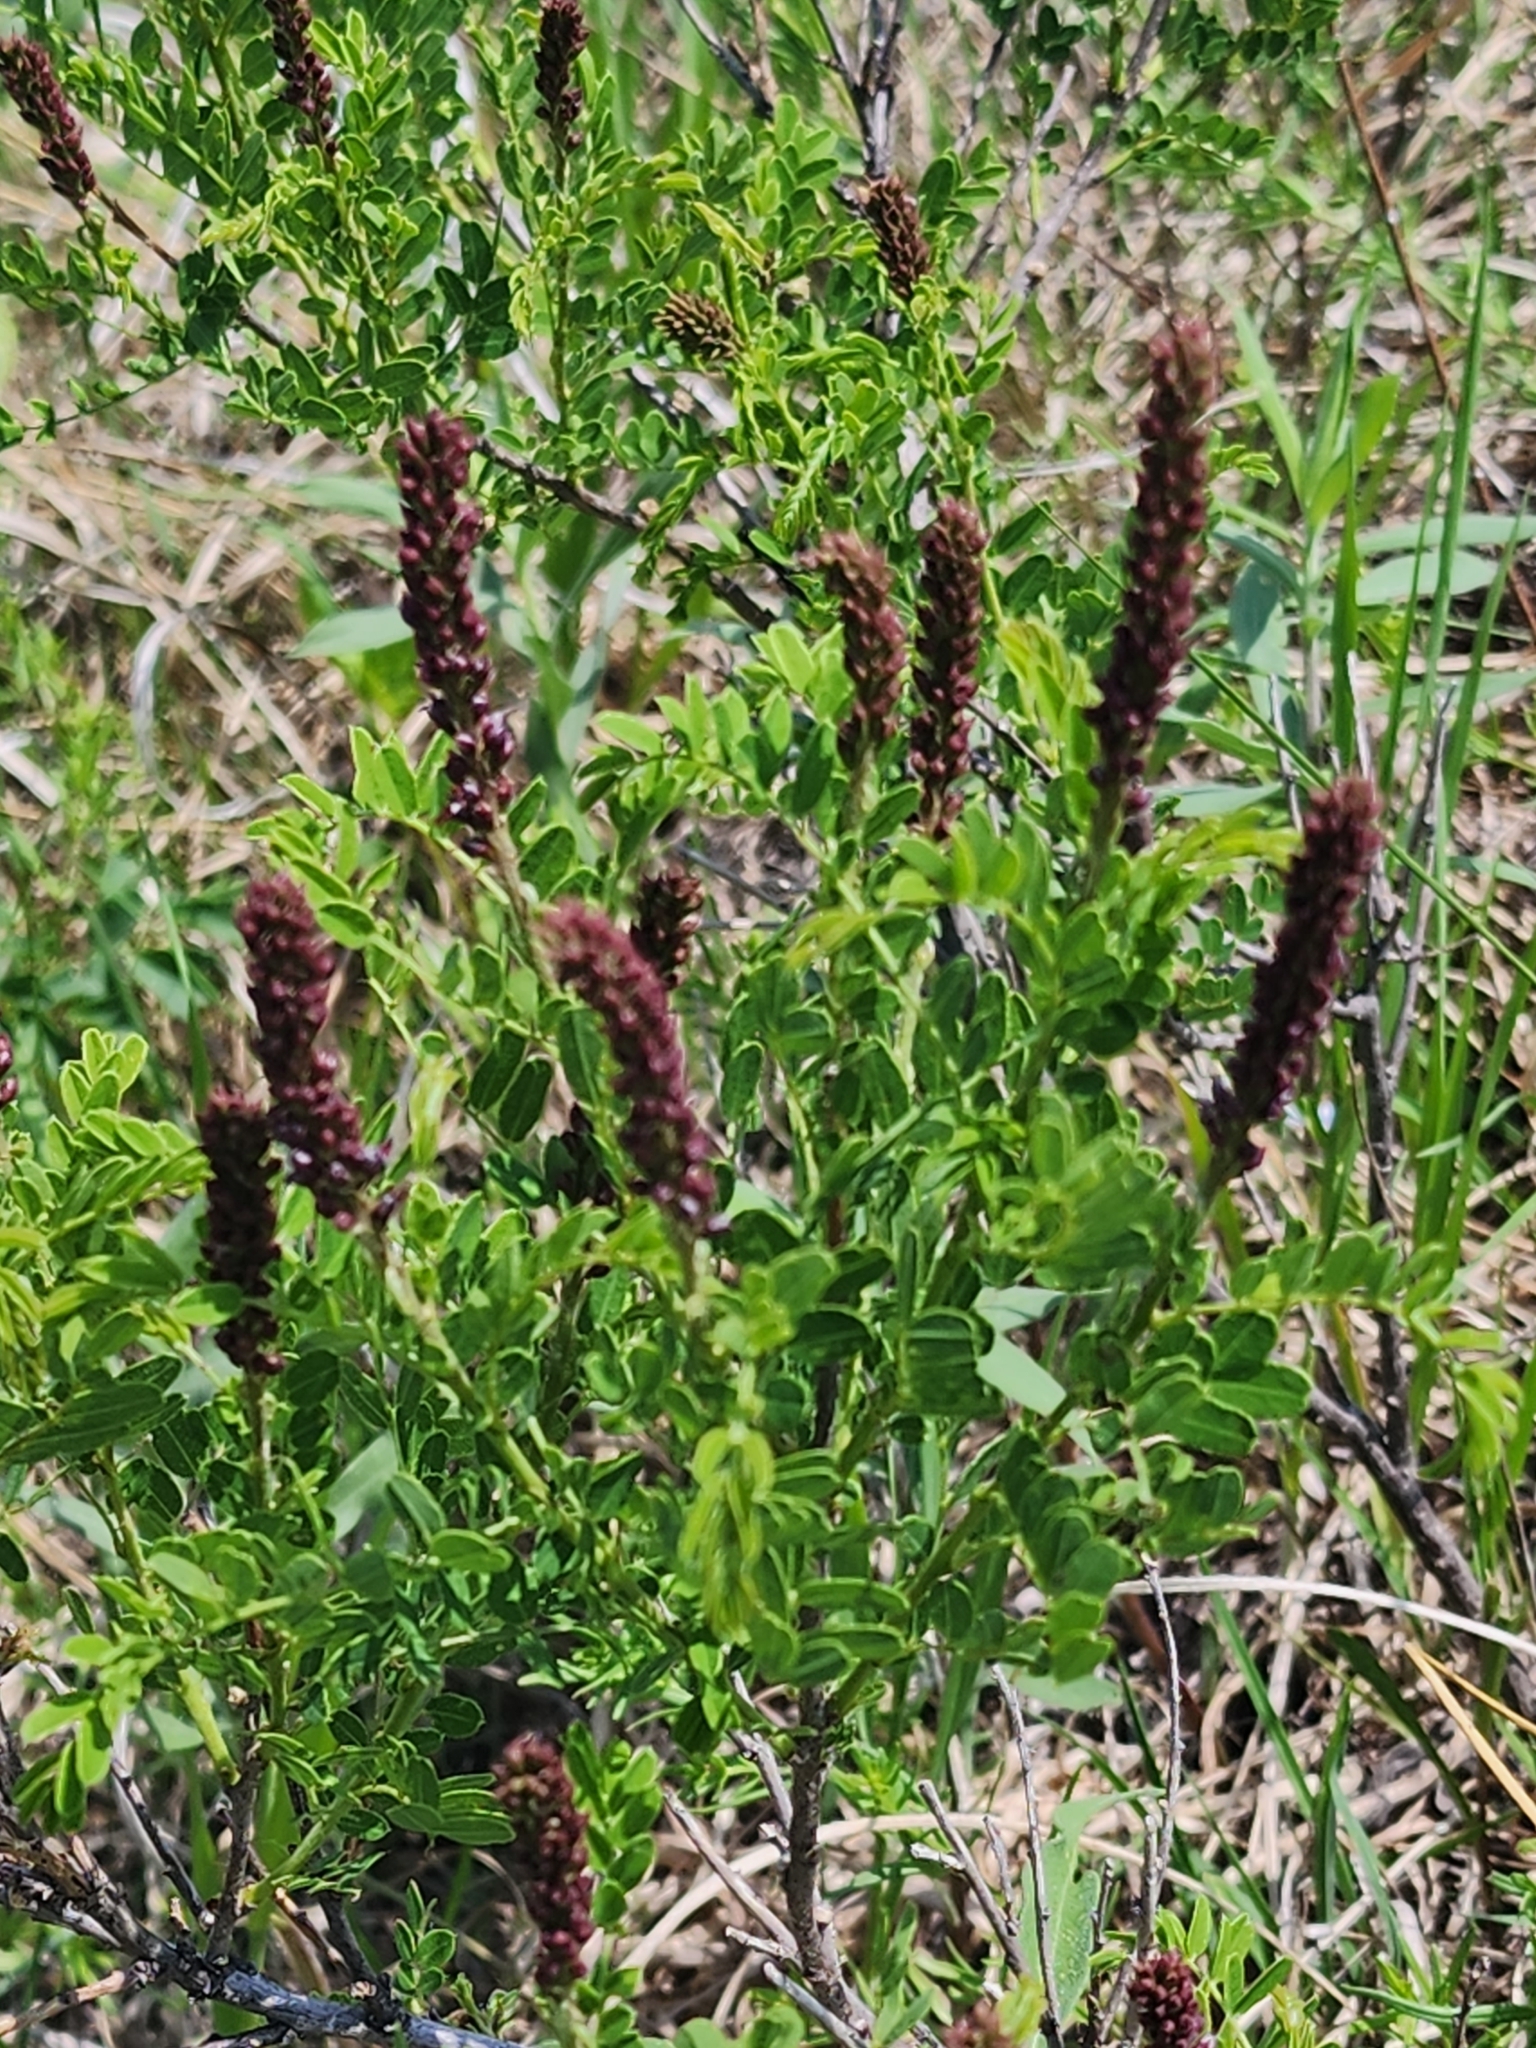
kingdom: Plantae
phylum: Tracheophyta
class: Magnoliopsida
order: Fabales
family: Fabaceae
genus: Amorpha
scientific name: Amorpha nana
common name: Fragrant false indigo
